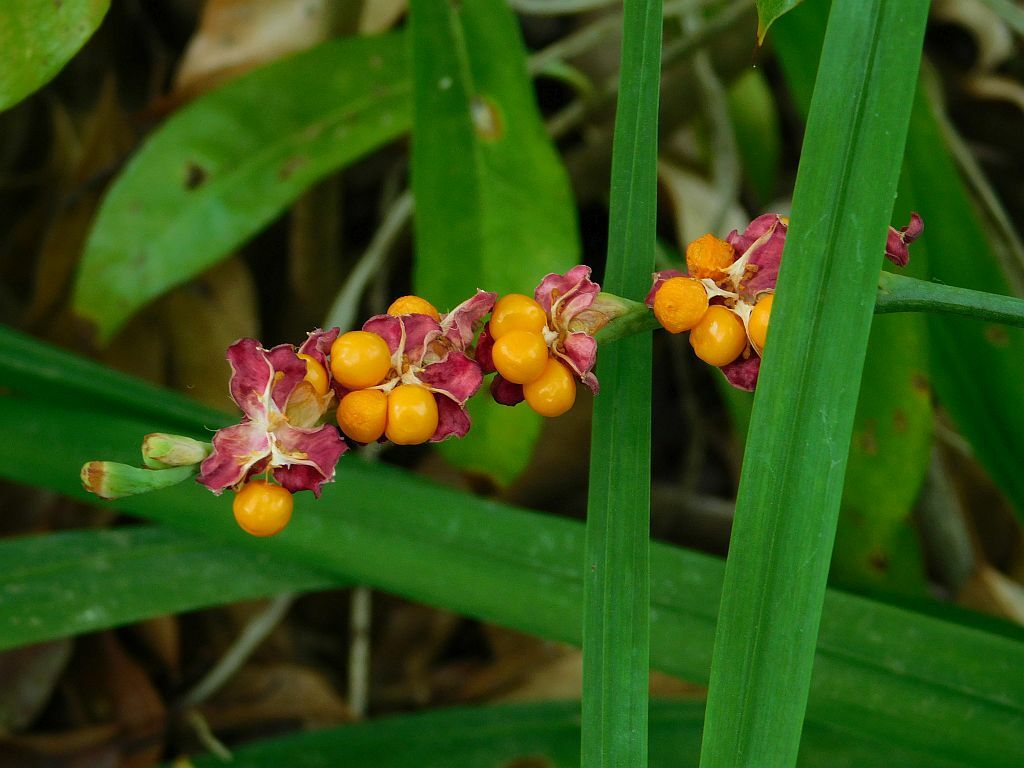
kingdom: Plantae
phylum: Tracheophyta
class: Liliopsida
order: Asparagales
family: Iridaceae
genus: Chasmanthe
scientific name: Chasmanthe aethiopica
